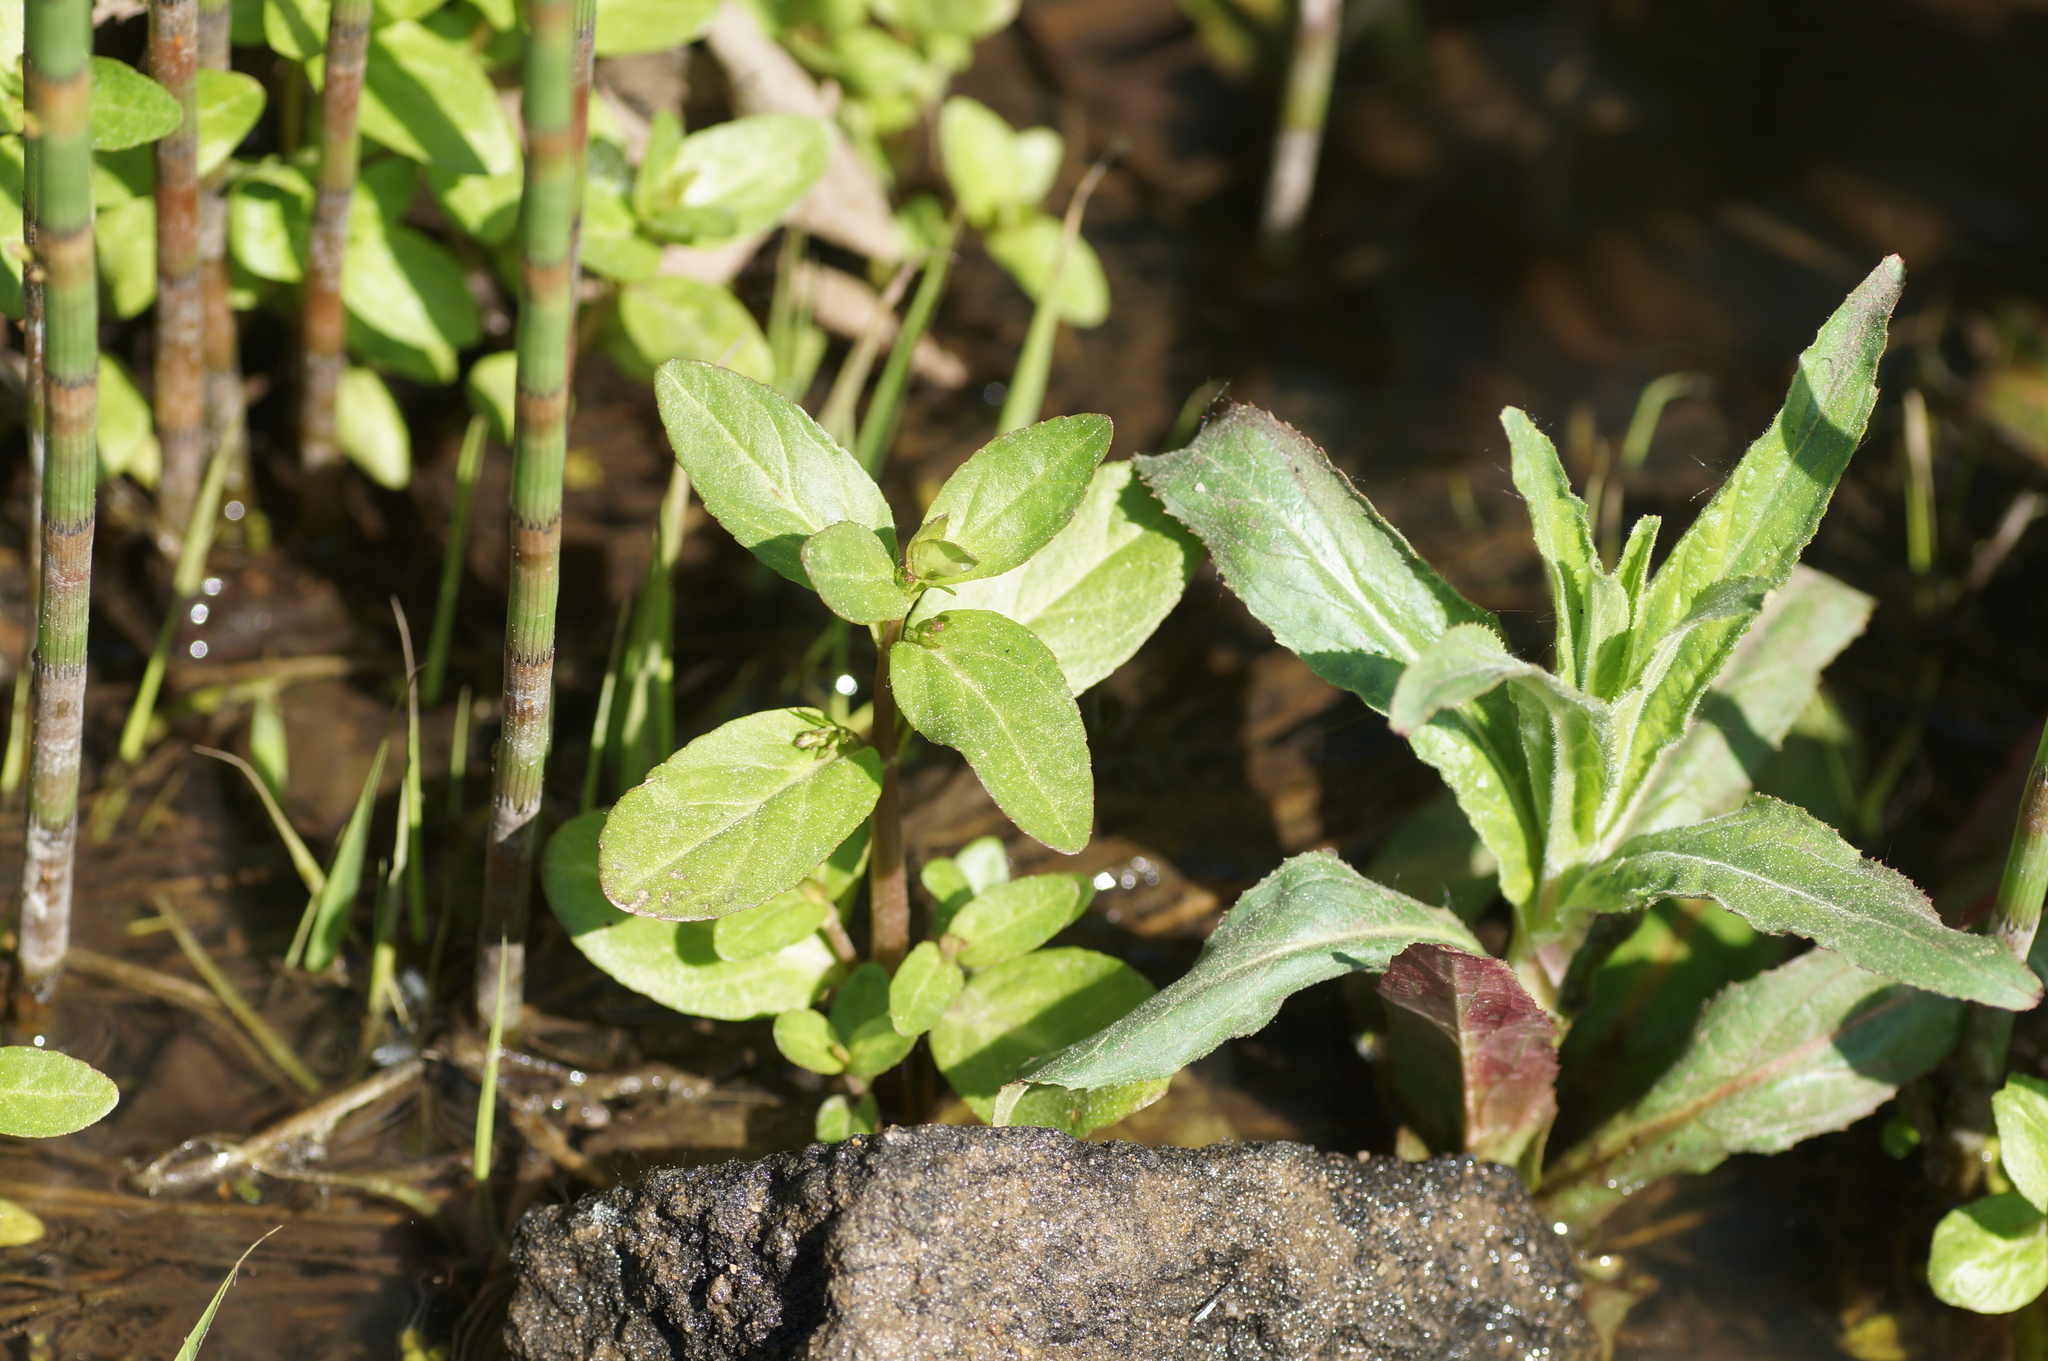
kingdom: Plantae
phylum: Tracheophyta
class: Magnoliopsida
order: Lamiales
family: Plantaginaceae
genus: Veronica
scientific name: Veronica beccabunga
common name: Brooklime
